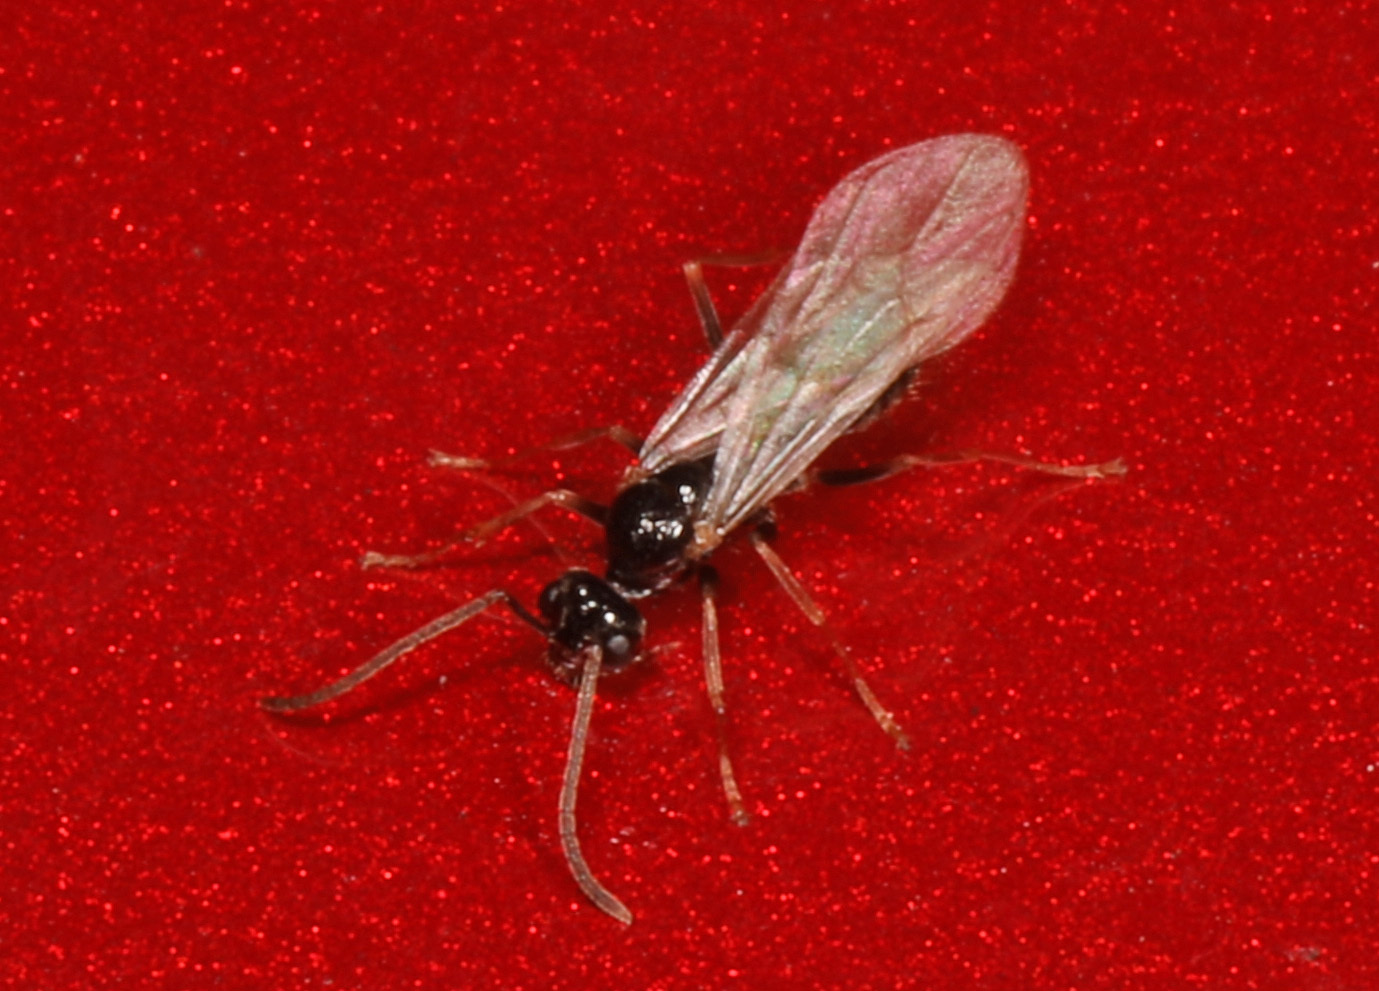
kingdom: Animalia
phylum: Arthropoda
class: Insecta
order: Hymenoptera
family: Formicidae
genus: Prenolepis
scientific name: Prenolepis imparis
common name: Small honey ant
